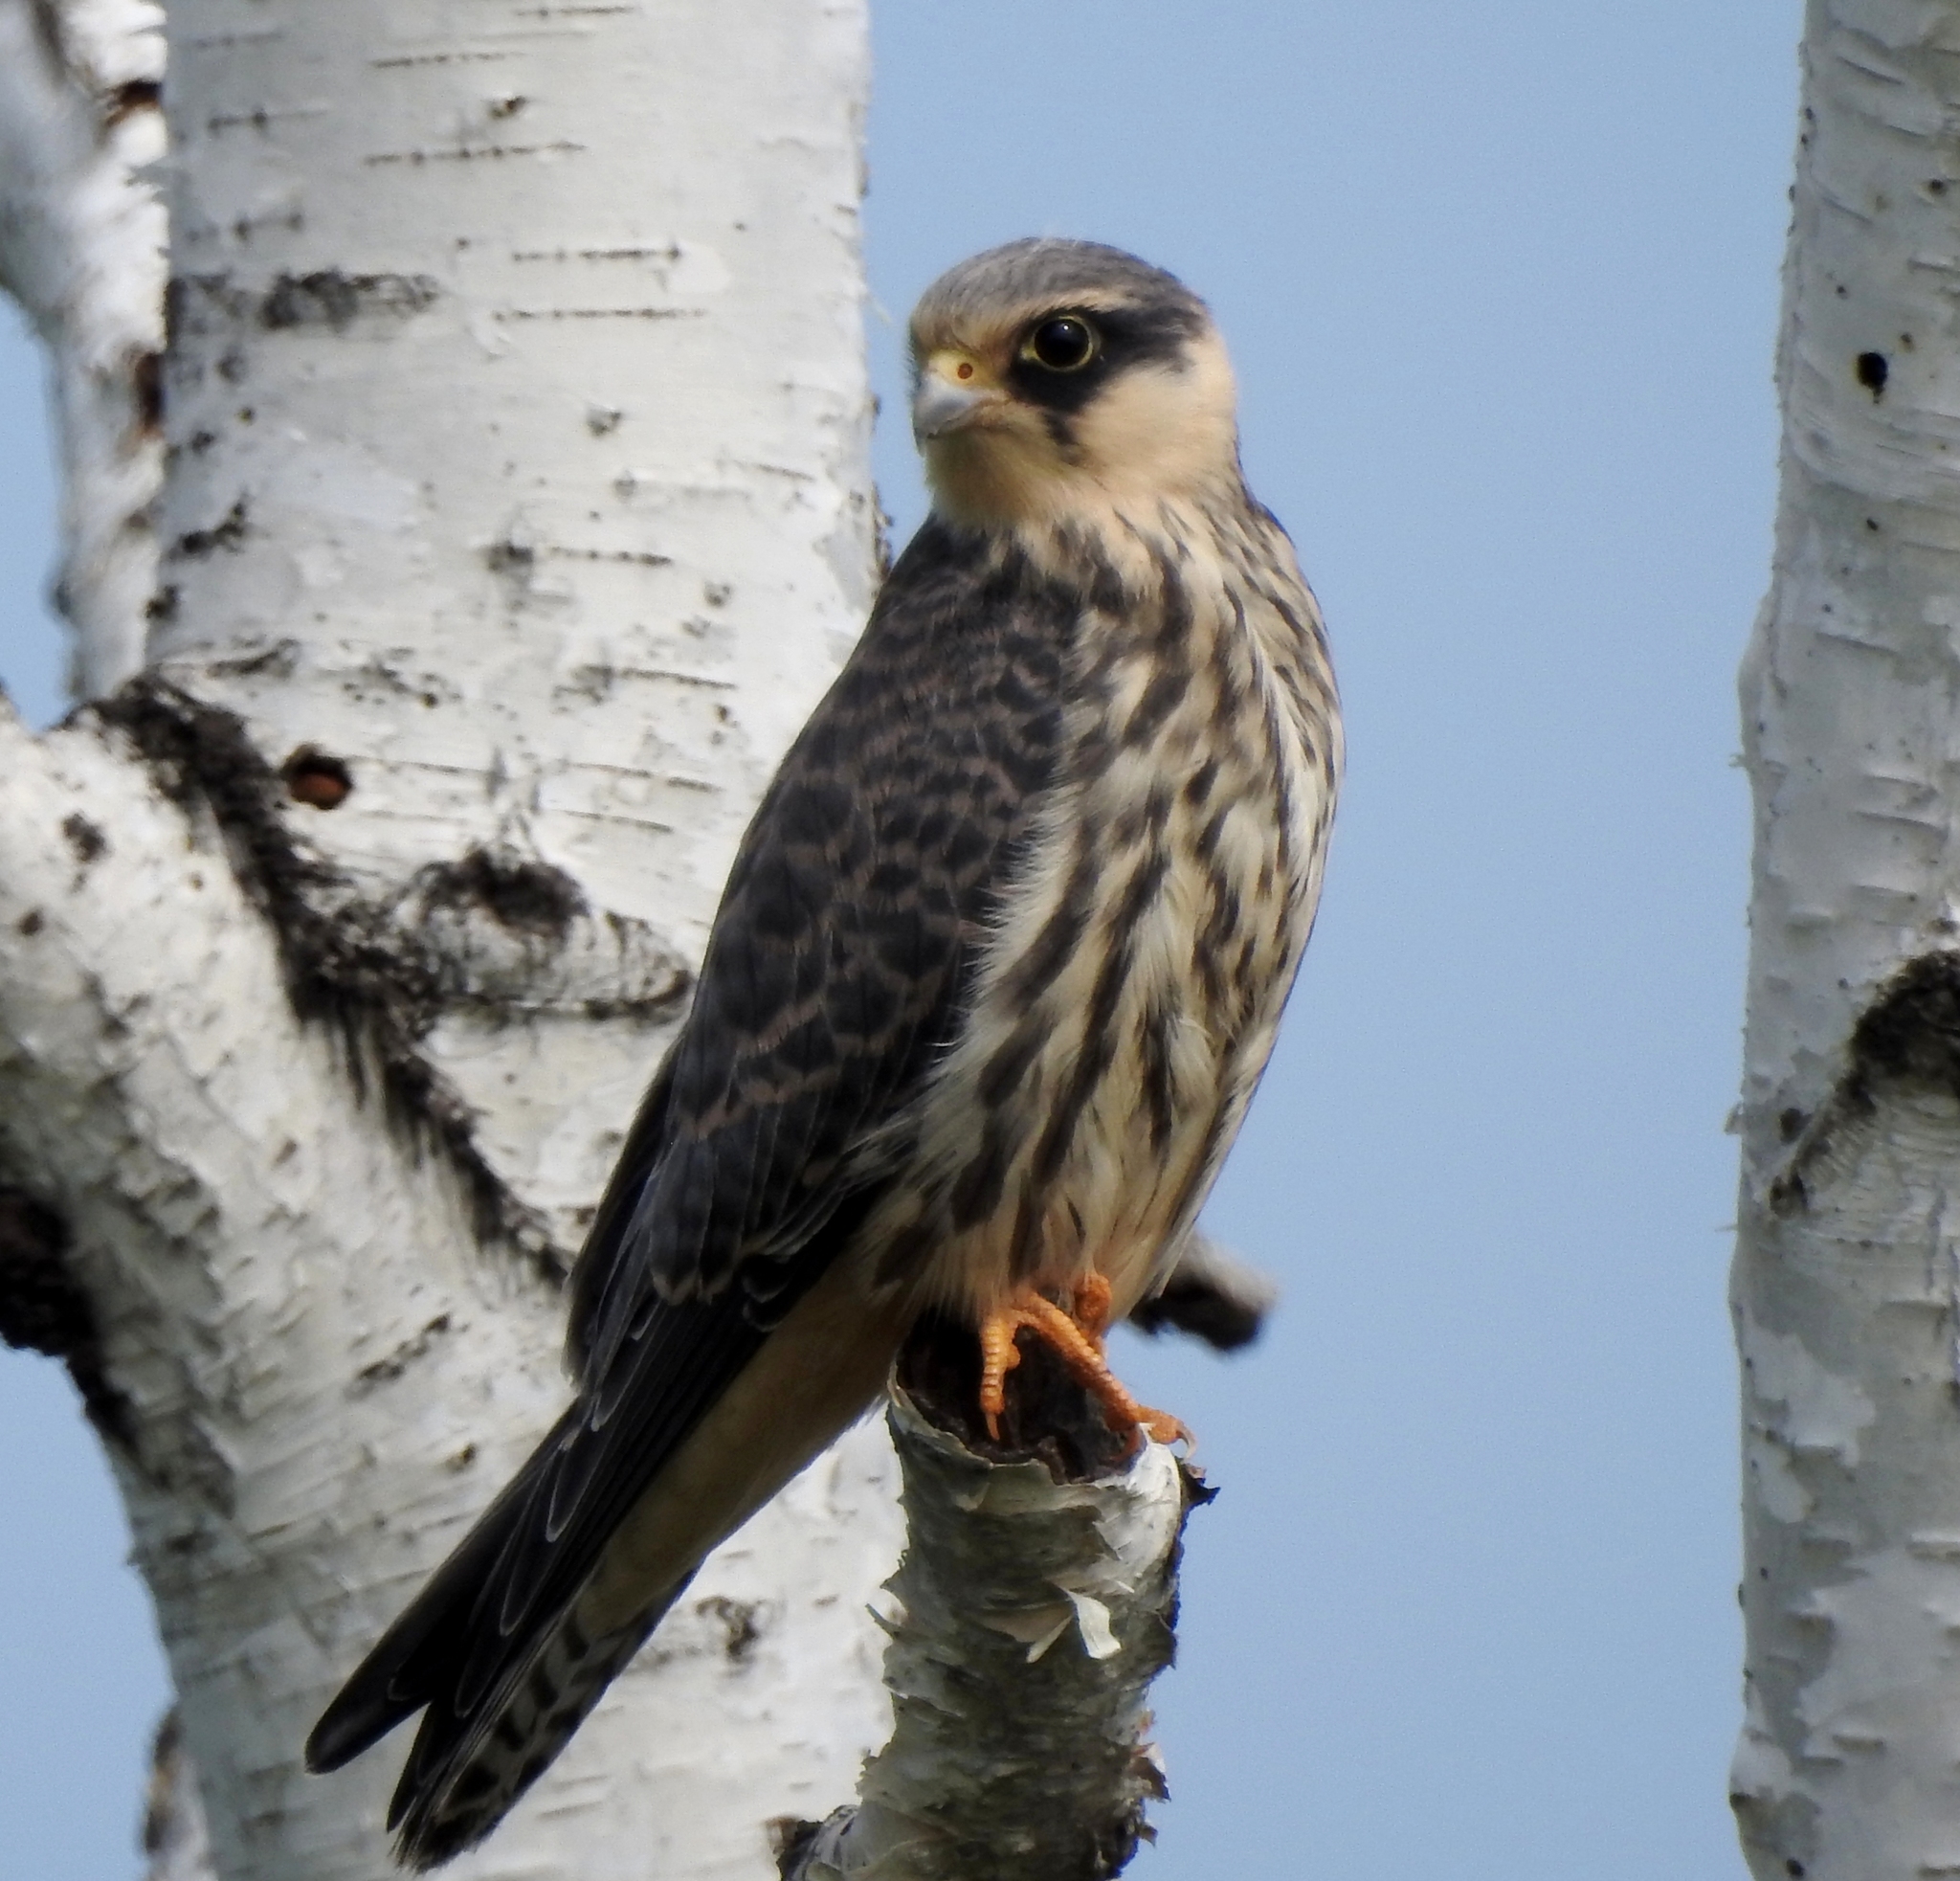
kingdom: Animalia
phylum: Chordata
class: Aves
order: Falconiformes
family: Falconidae
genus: Falco
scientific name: Falco amurensis
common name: Amur falcon
